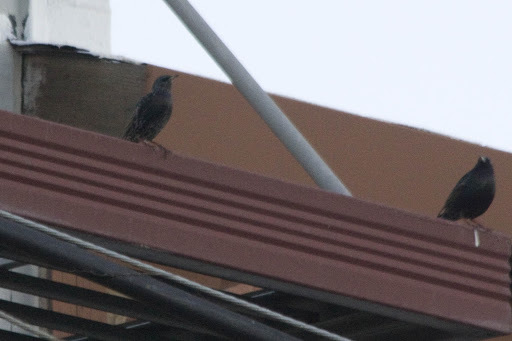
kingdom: Animalia
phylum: Chordata
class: Aves
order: Passeriformes
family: Sturnidae
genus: Sturnus
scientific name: Sturnus vulgaris
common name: Common starling
